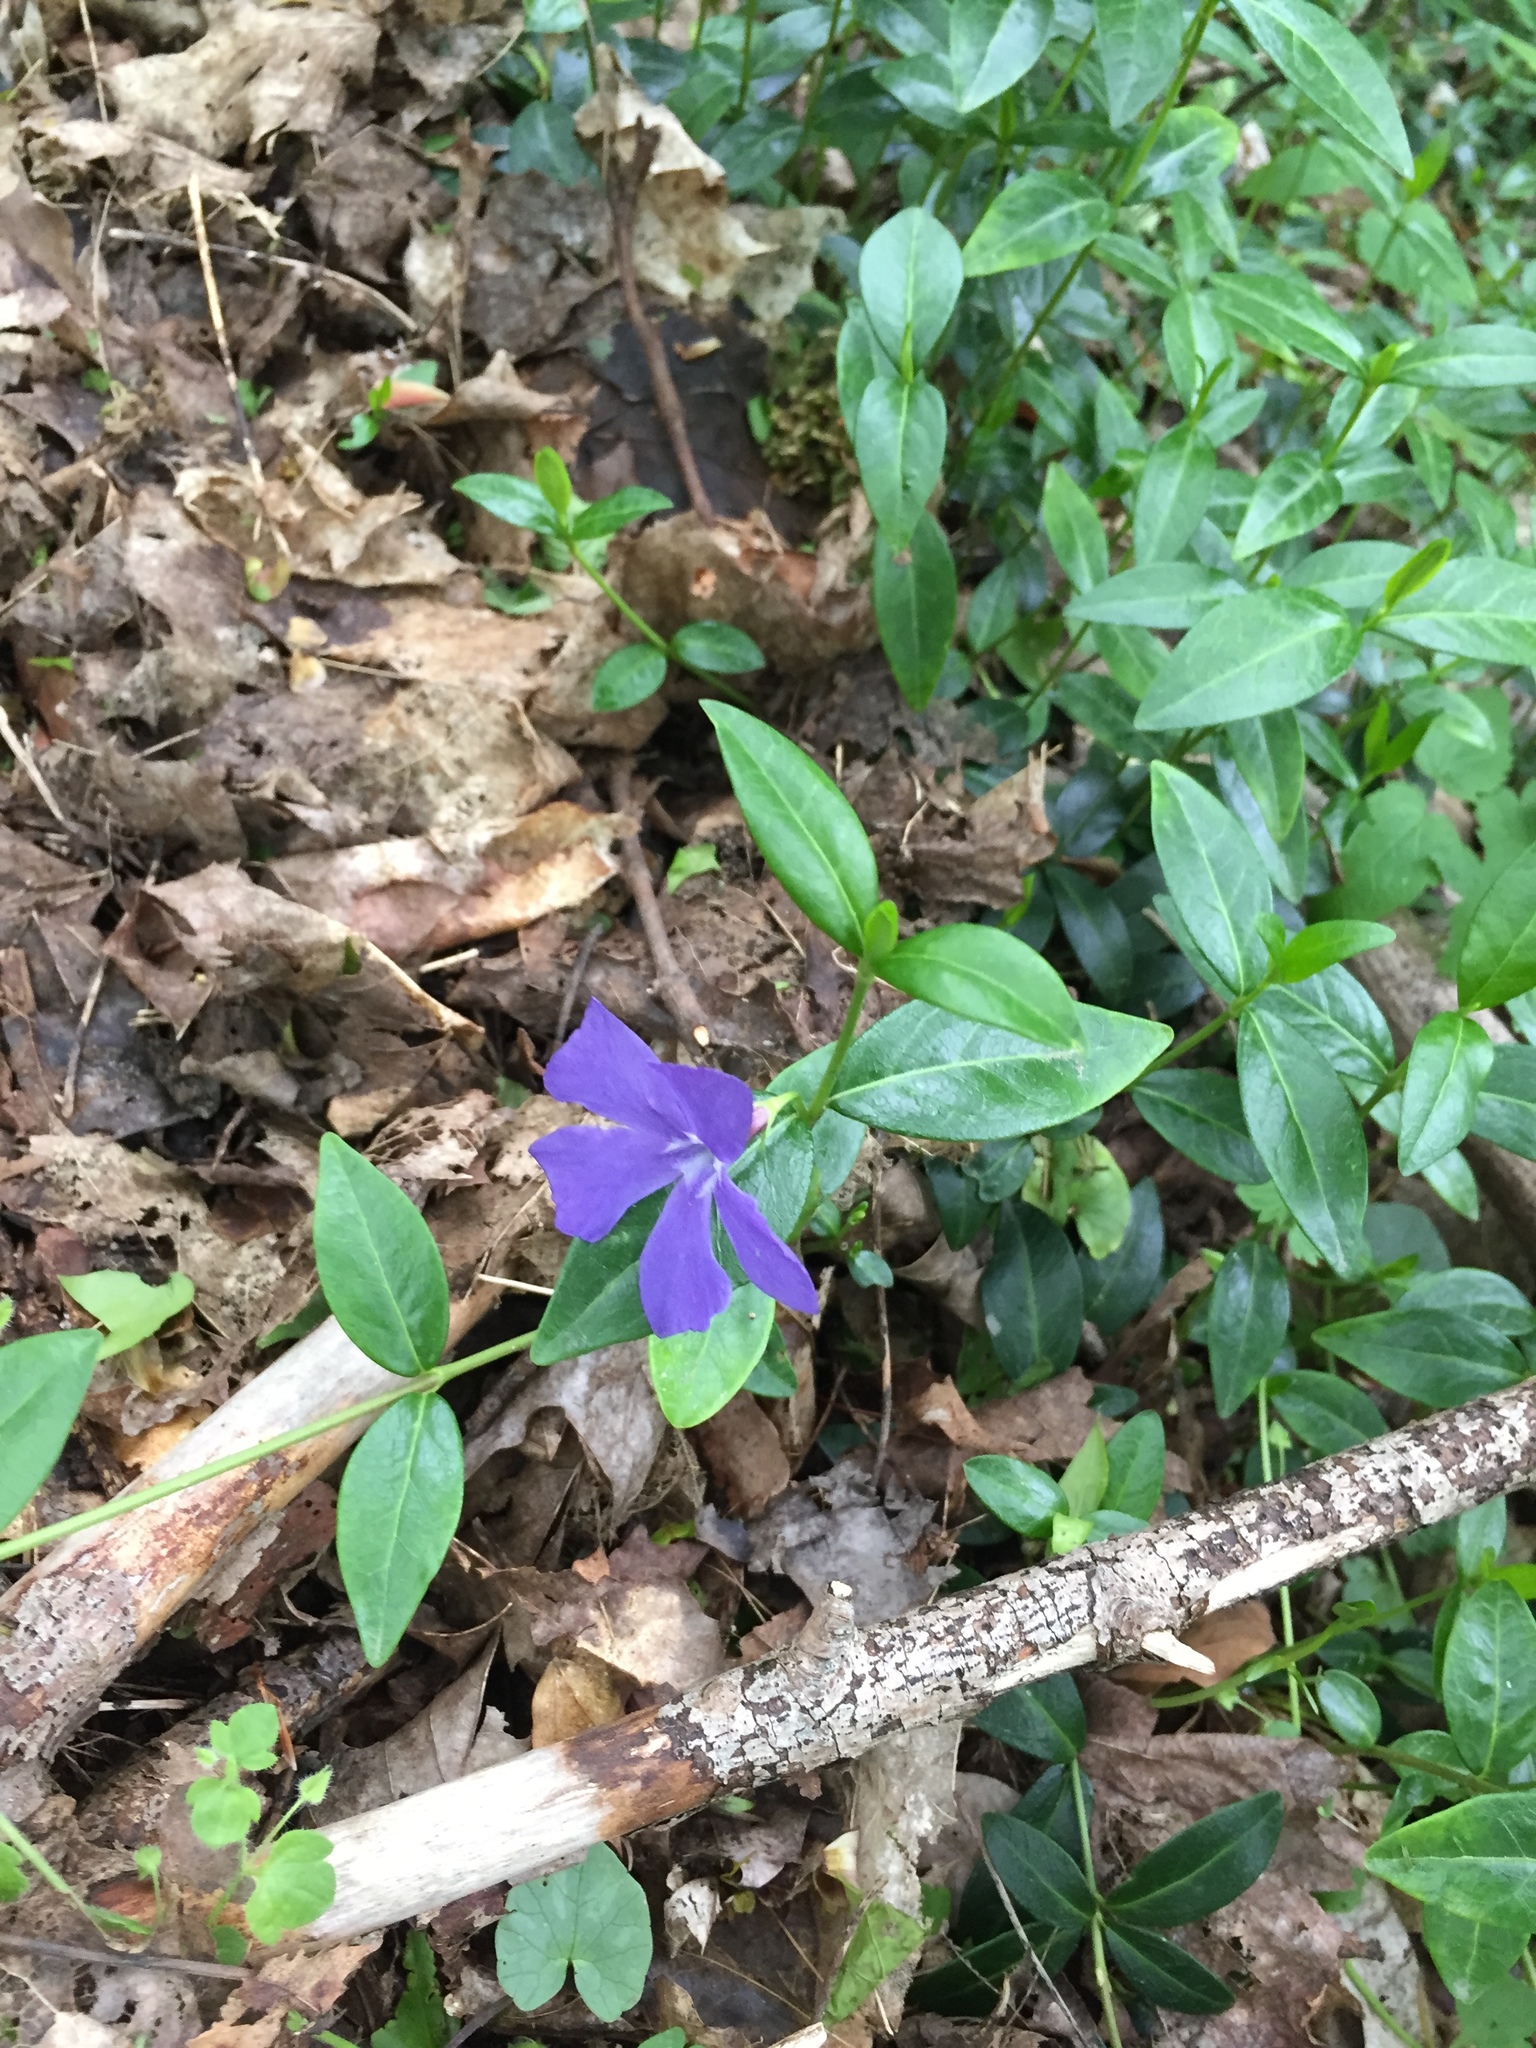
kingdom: Plantae
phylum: Tracheophyta
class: Magnoliopsida
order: Gentianales
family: Apocynaceae
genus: Vinca
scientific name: Vinca minor
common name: Lesser periwinkle
